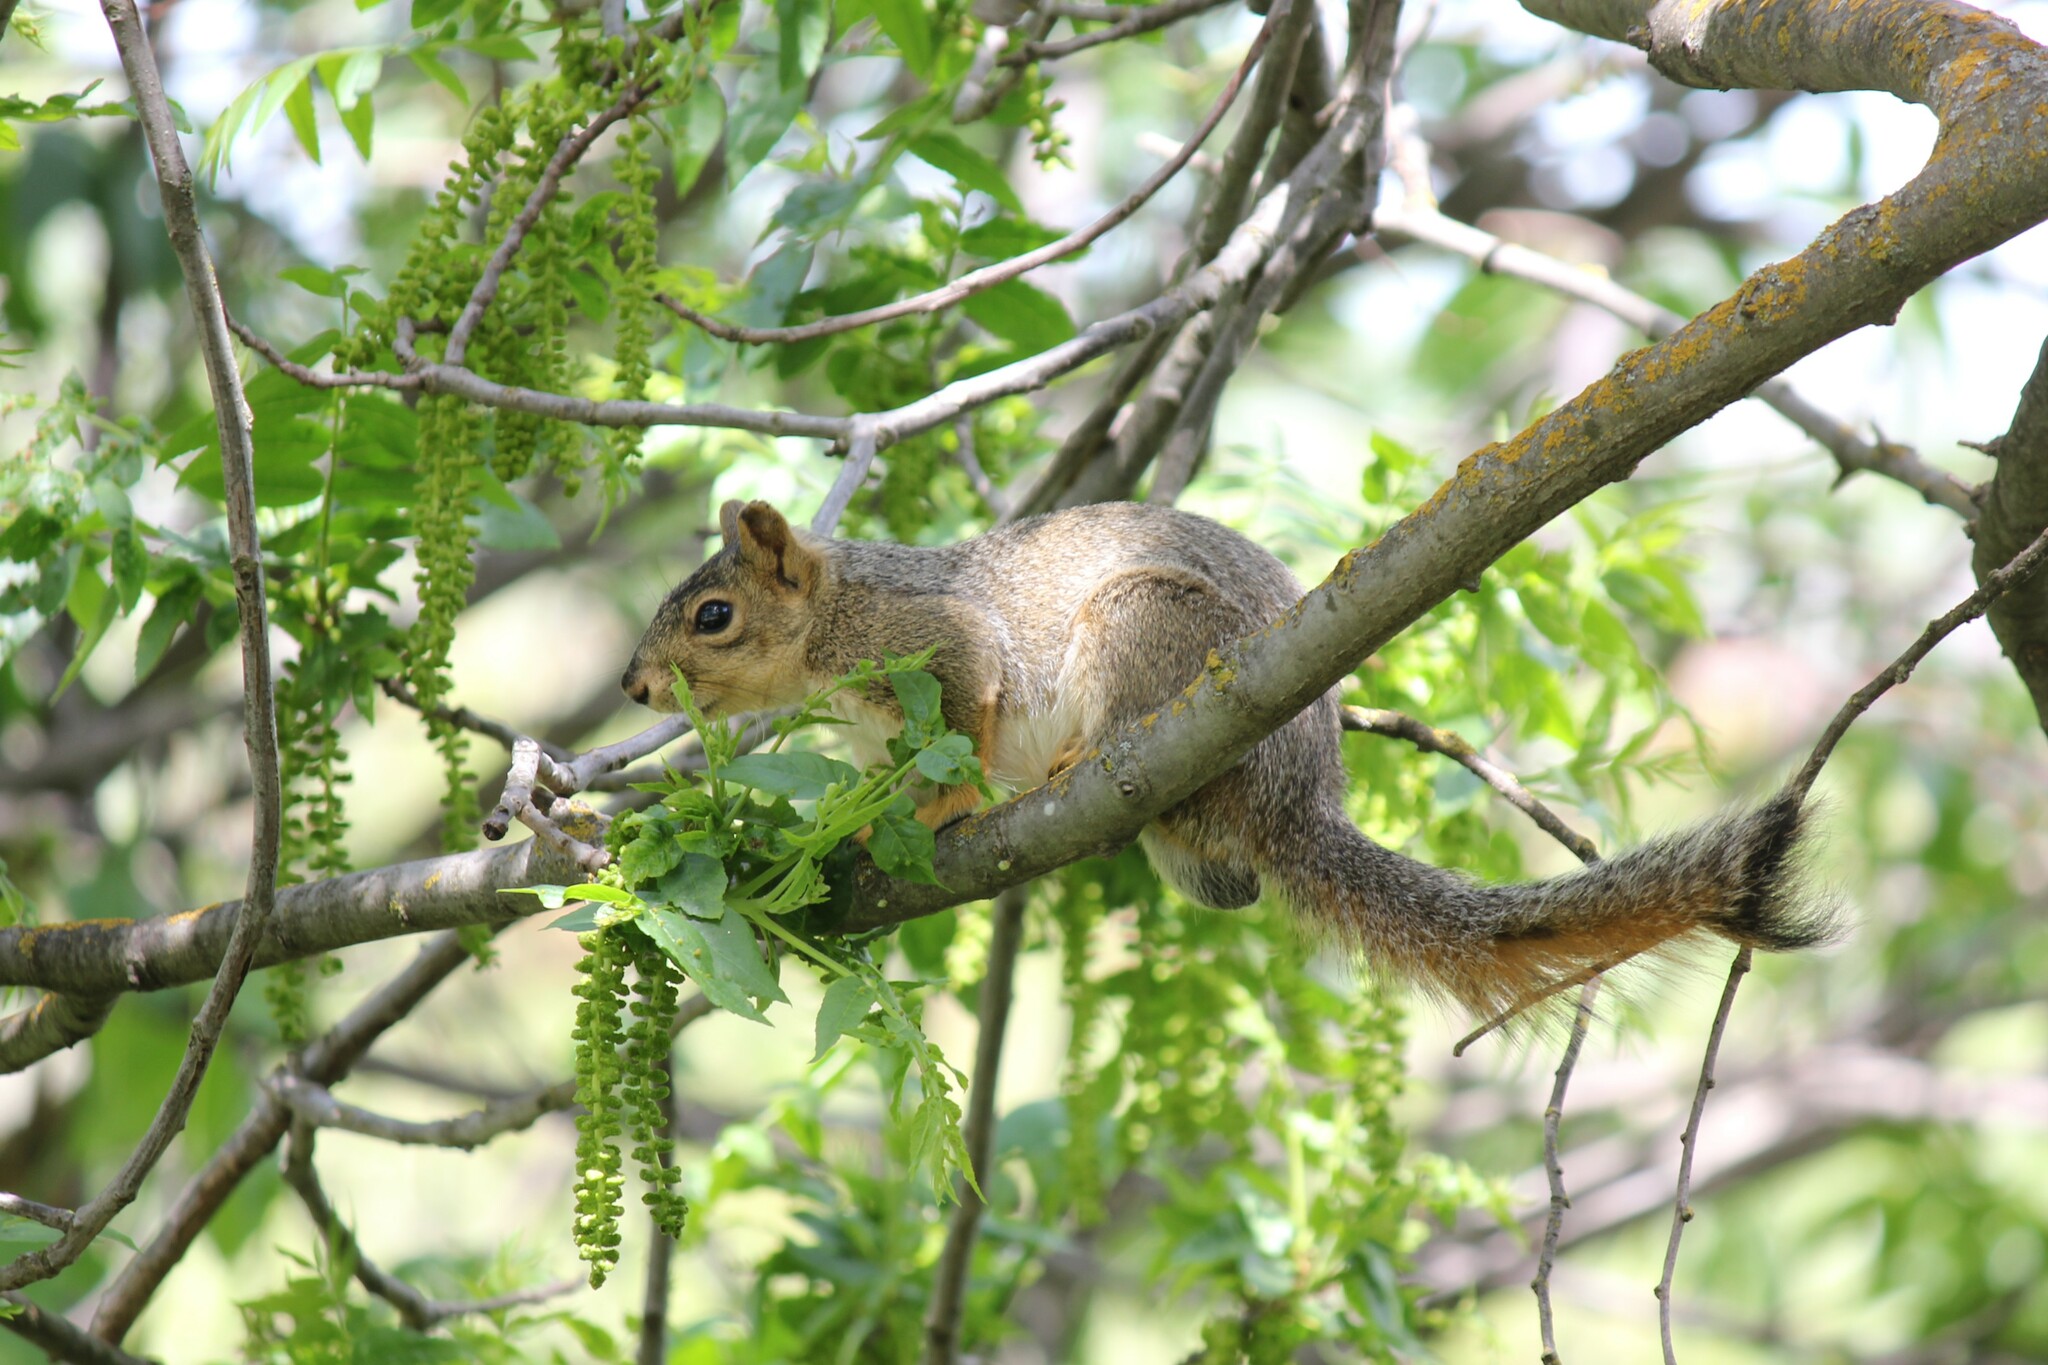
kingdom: Animalia
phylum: Chordata
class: Mammalia
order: Rodentia
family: Sciuridae
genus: Sciurus
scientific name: Sciurus niger
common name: Fox squirrel
